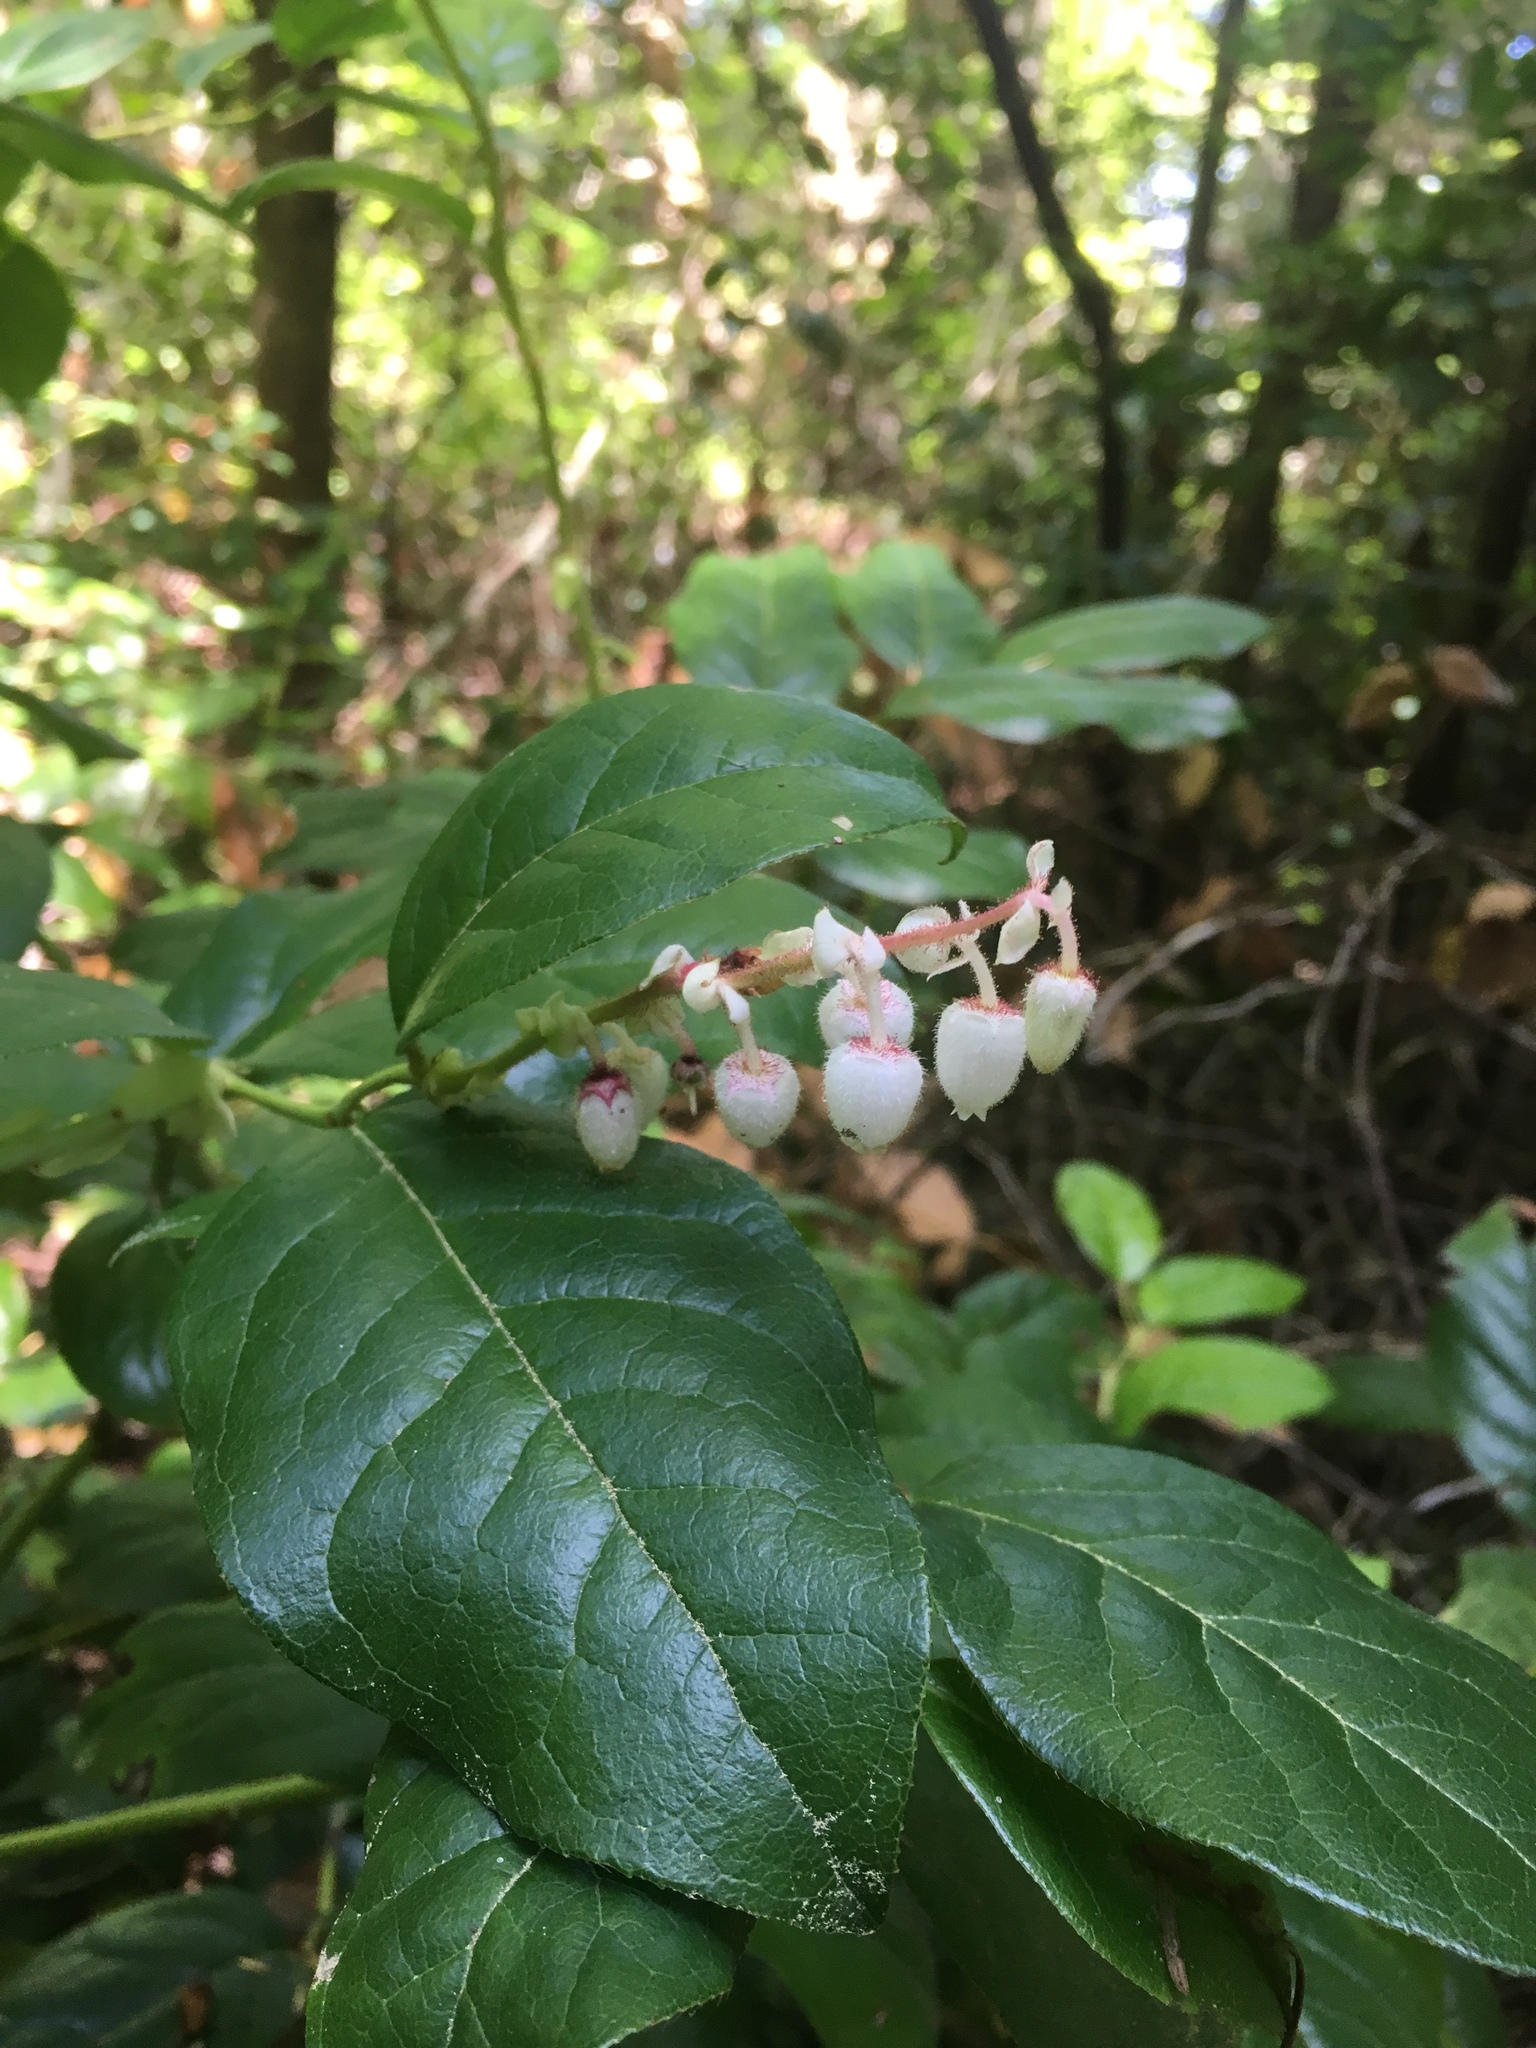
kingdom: Plantae
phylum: Tracheophyta
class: Magnoliopsida
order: Ericales
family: Ericaceae
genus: Gaultheria
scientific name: Gaultheria shallon
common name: Shallon
